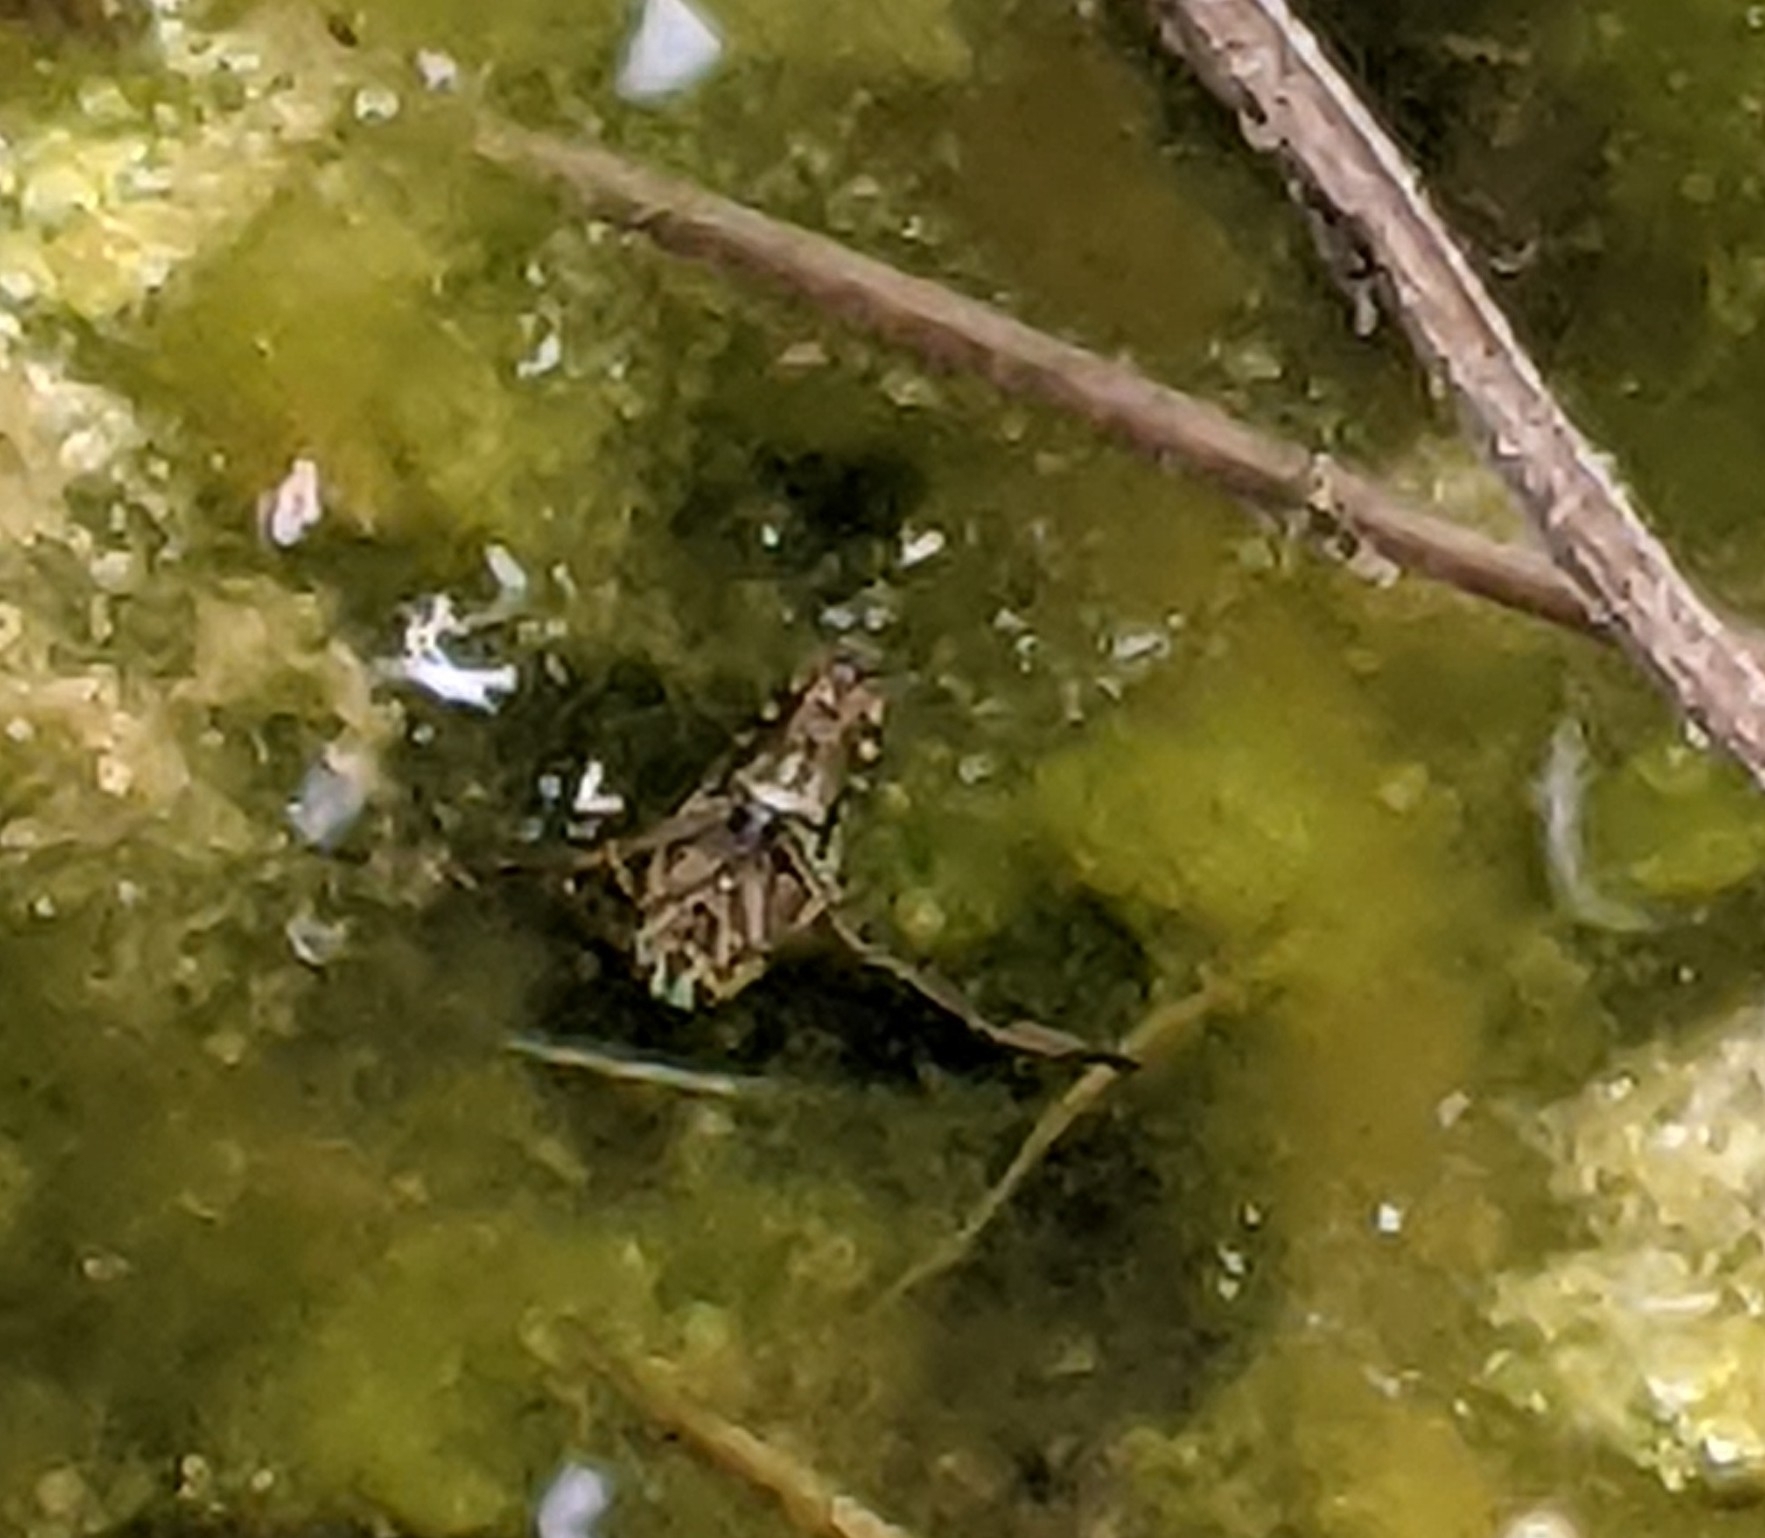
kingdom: Animalia
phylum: Arthropoda
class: Insecta
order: Hemiptera
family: Notonectidae
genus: Notonecta
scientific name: Notonecta
